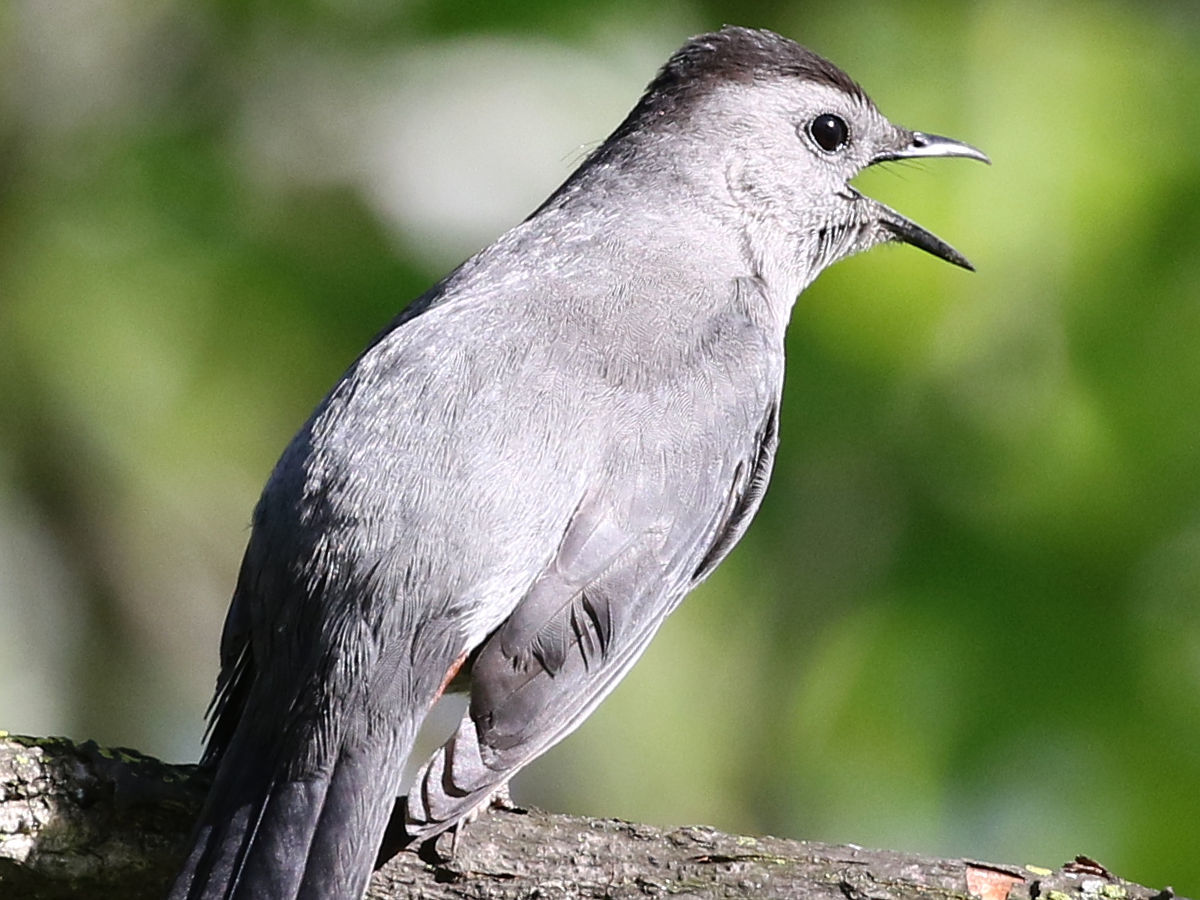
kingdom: Animalia
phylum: Chordata
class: Aves
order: Passeriformes
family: Mimidae
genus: Dumetella
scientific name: Dumetella carolinensis
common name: Gray catbird
